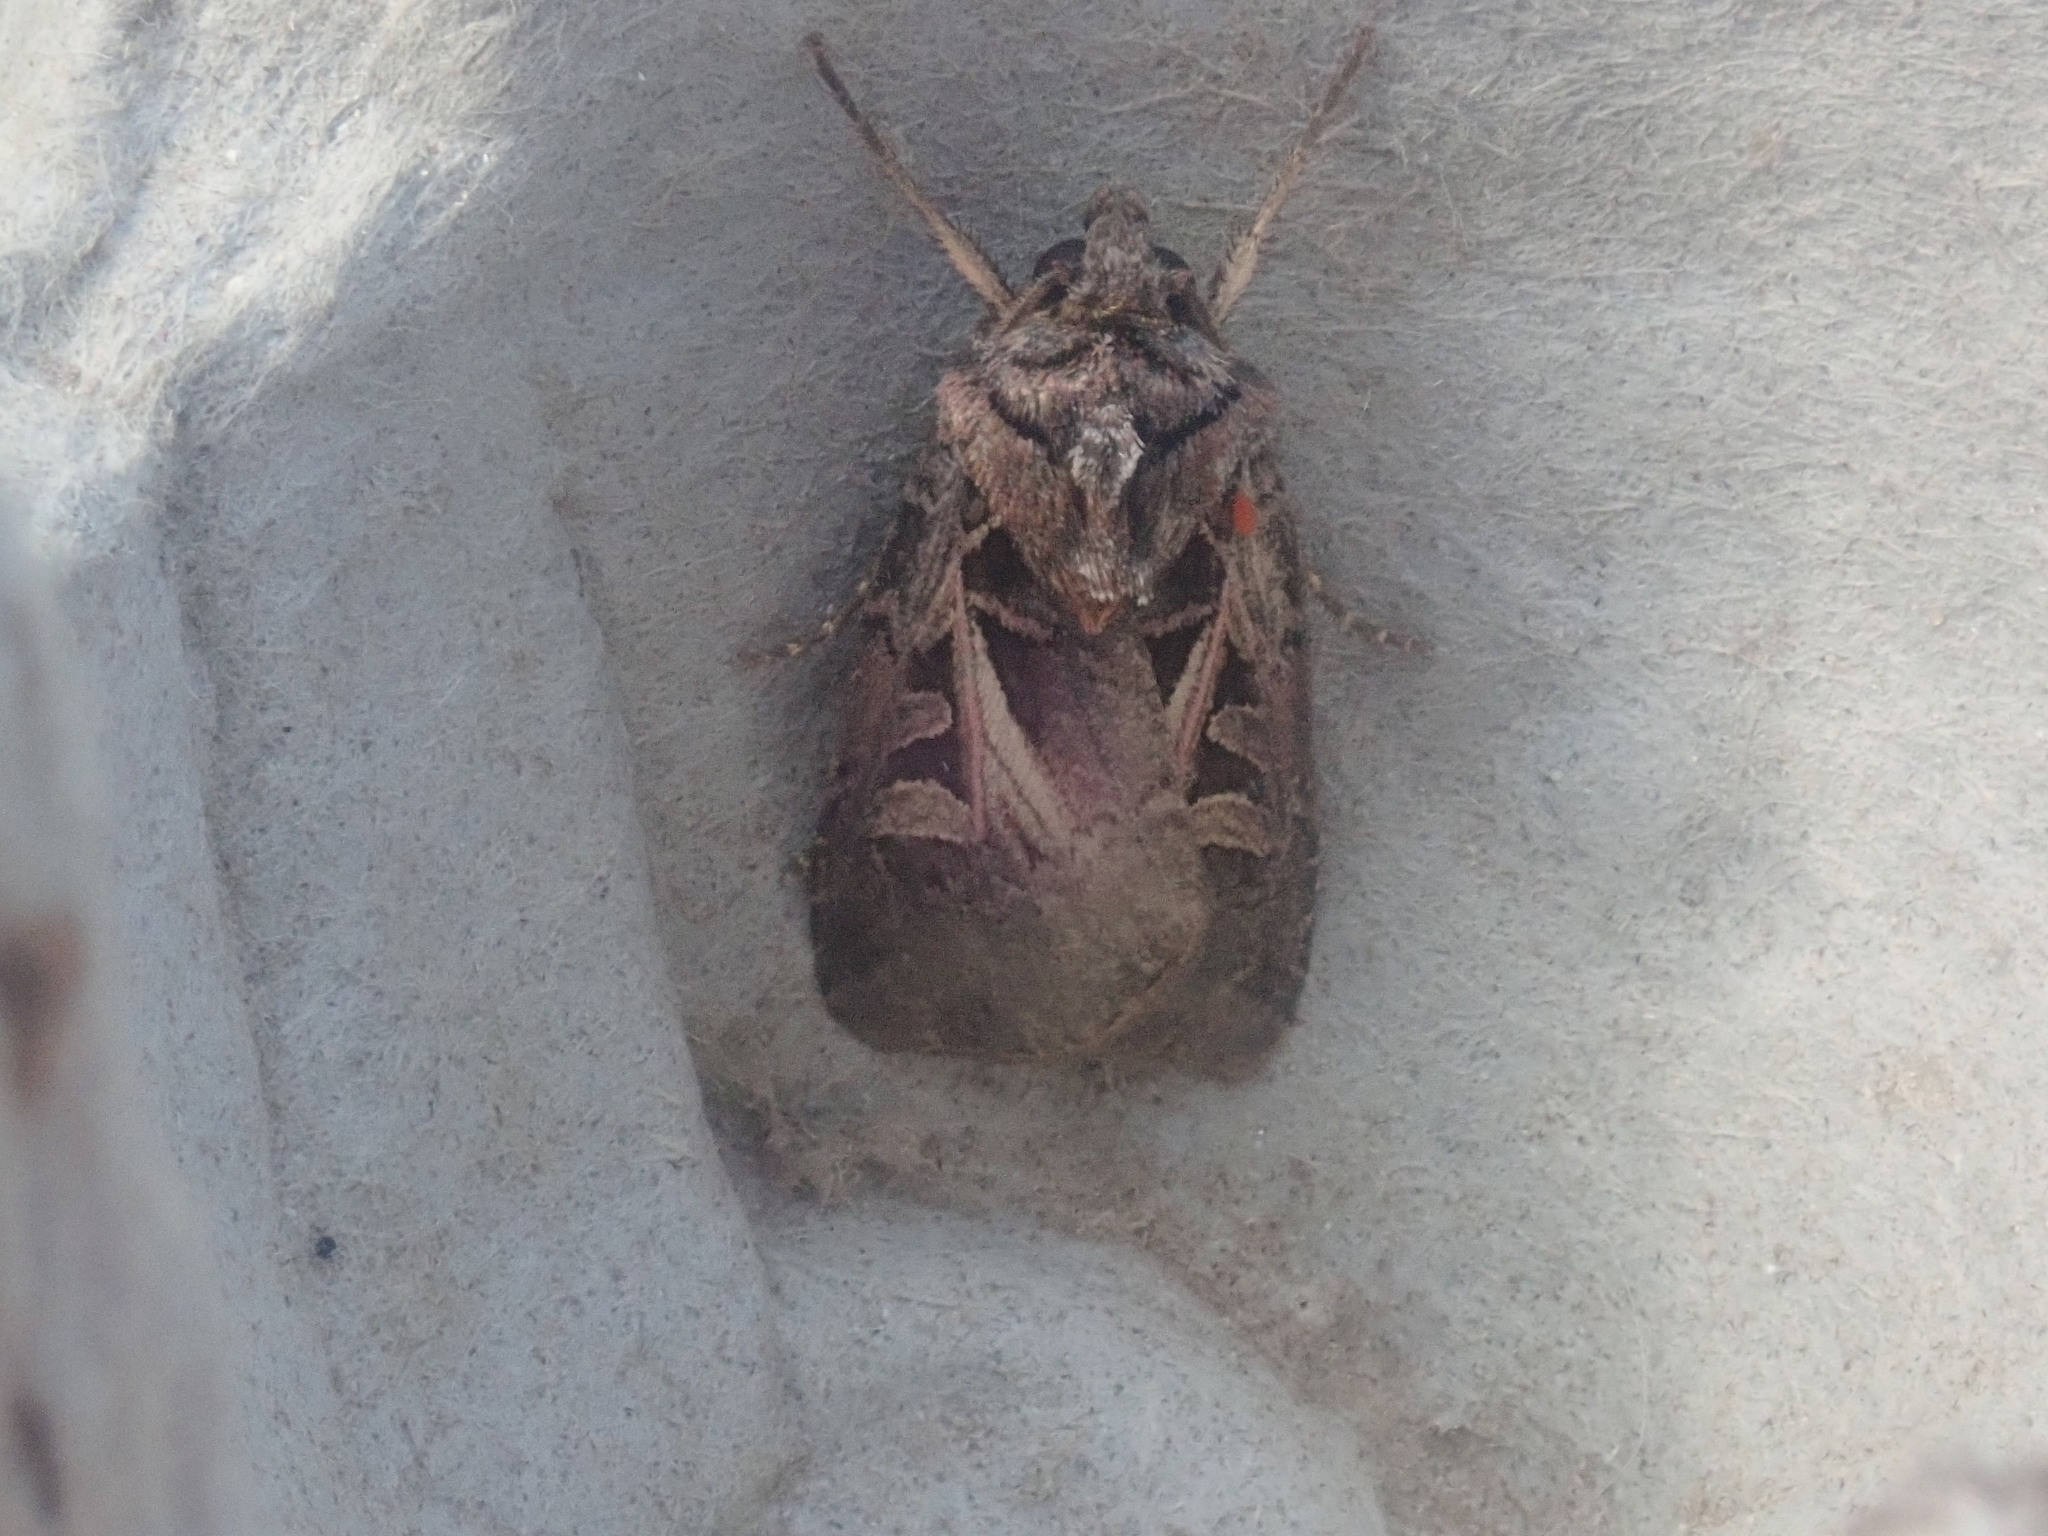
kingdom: Animalia
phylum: Arthropoda
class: Insecta
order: Lepidoptera
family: Noctuidae
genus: Feltia
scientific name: Feltia herilis
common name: Master's dart
